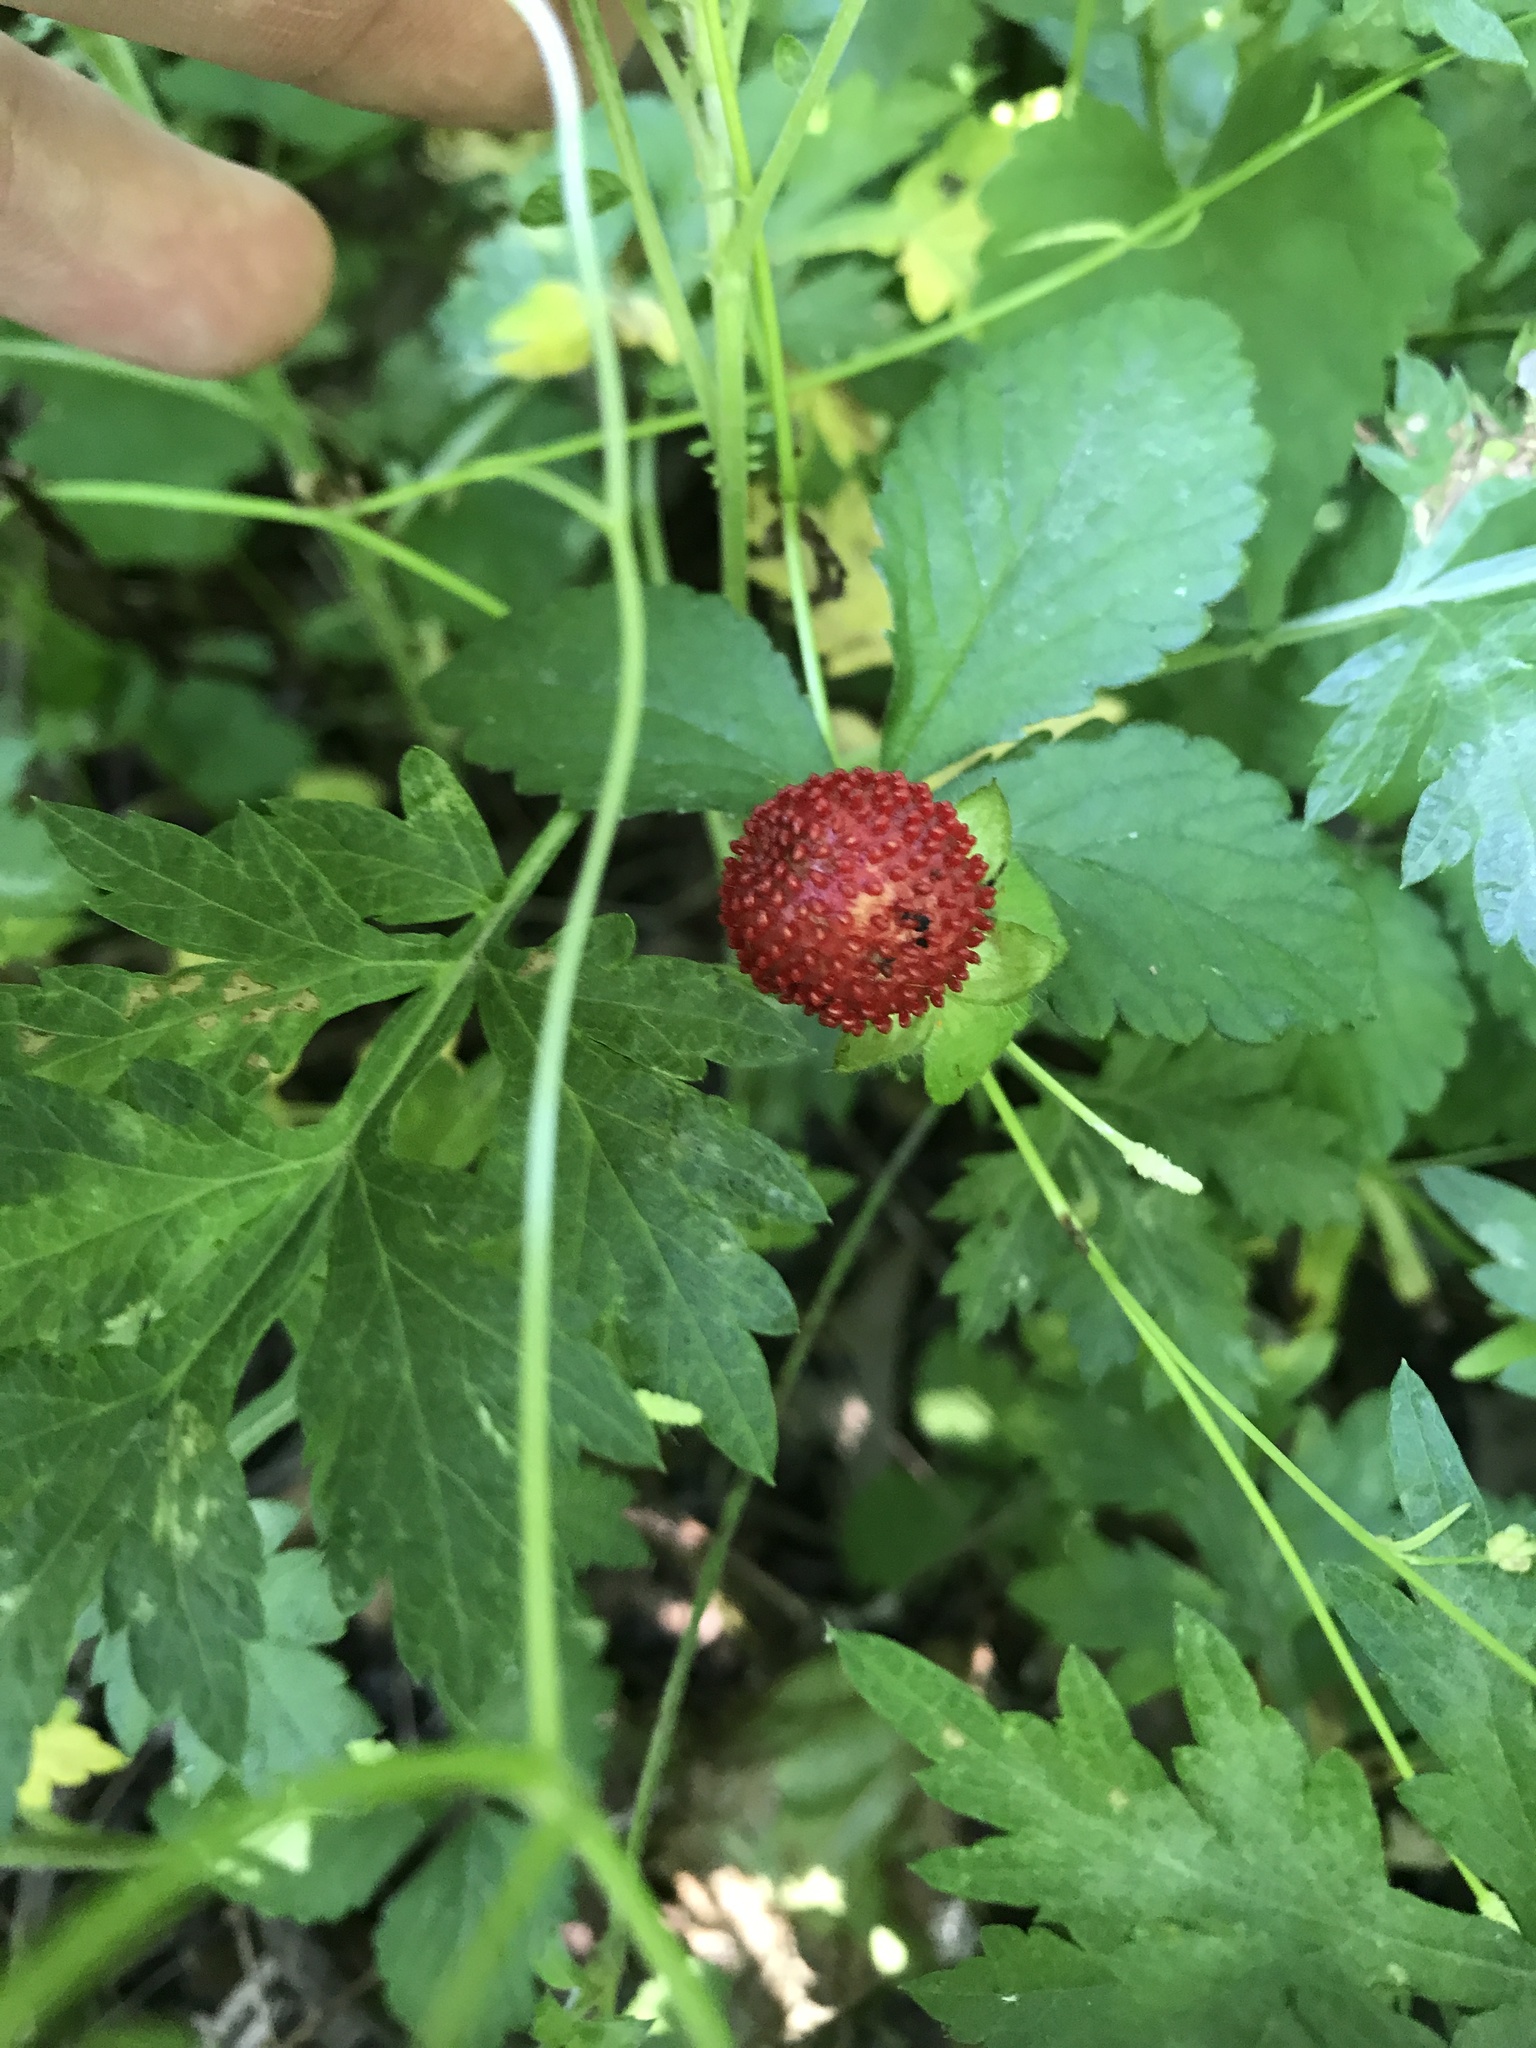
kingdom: Plantae
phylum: Tracheophyta
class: Magnoliopsida
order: Rosales
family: Rosaceae
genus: Potentilla
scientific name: Potentilla indica
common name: Yellow-flowered strawberry
